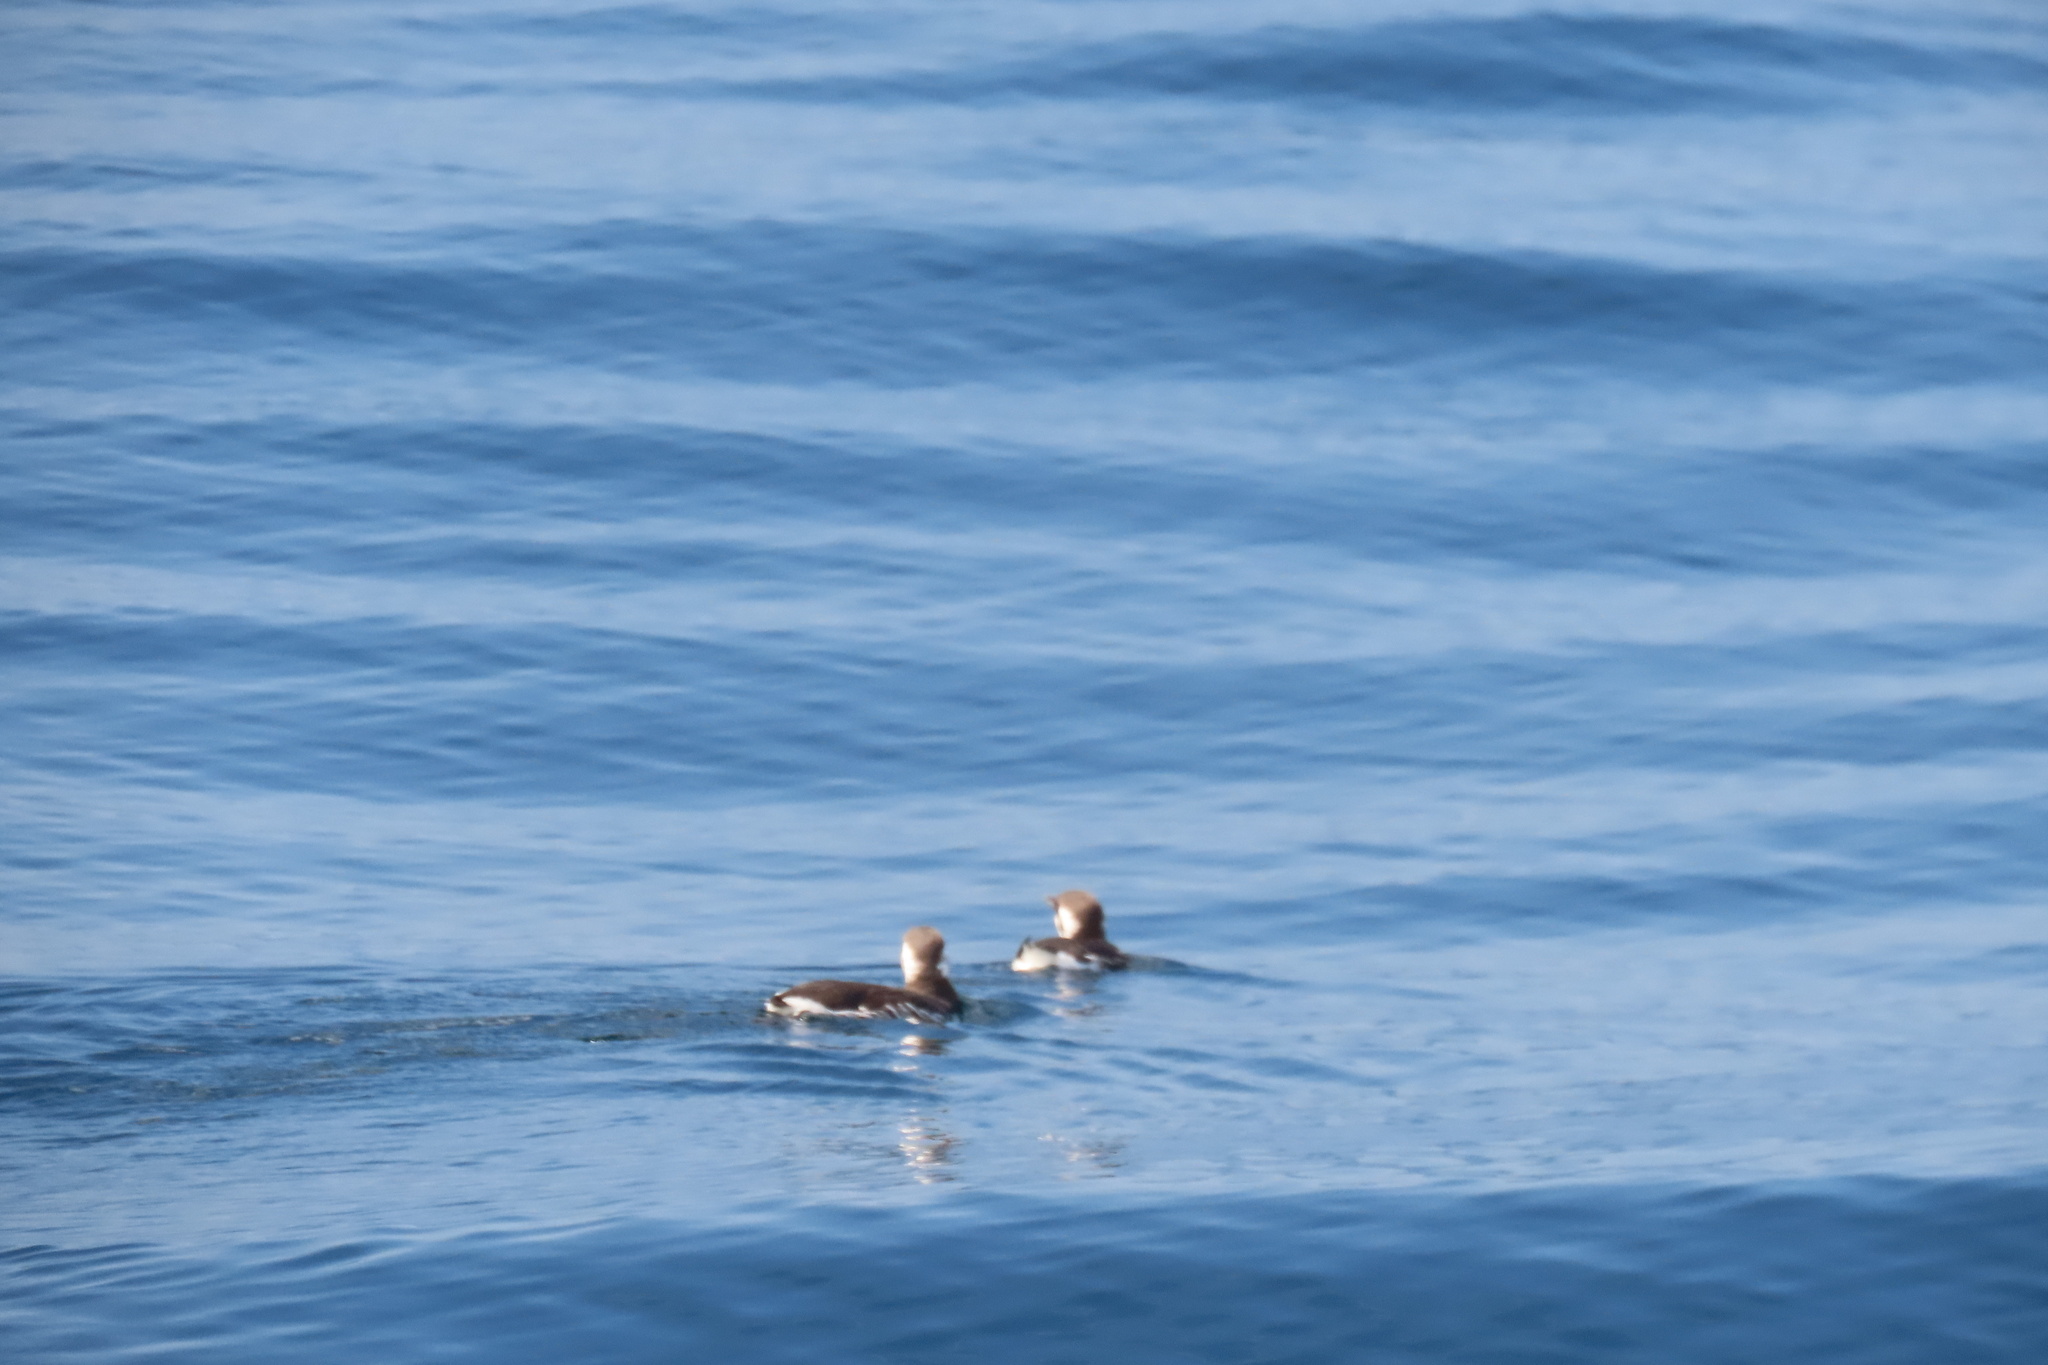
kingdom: Animalia
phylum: Chordata
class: Aves
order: Charadriiformes
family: Alcidae
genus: Uria
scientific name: Uria aalge
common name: Common murre
